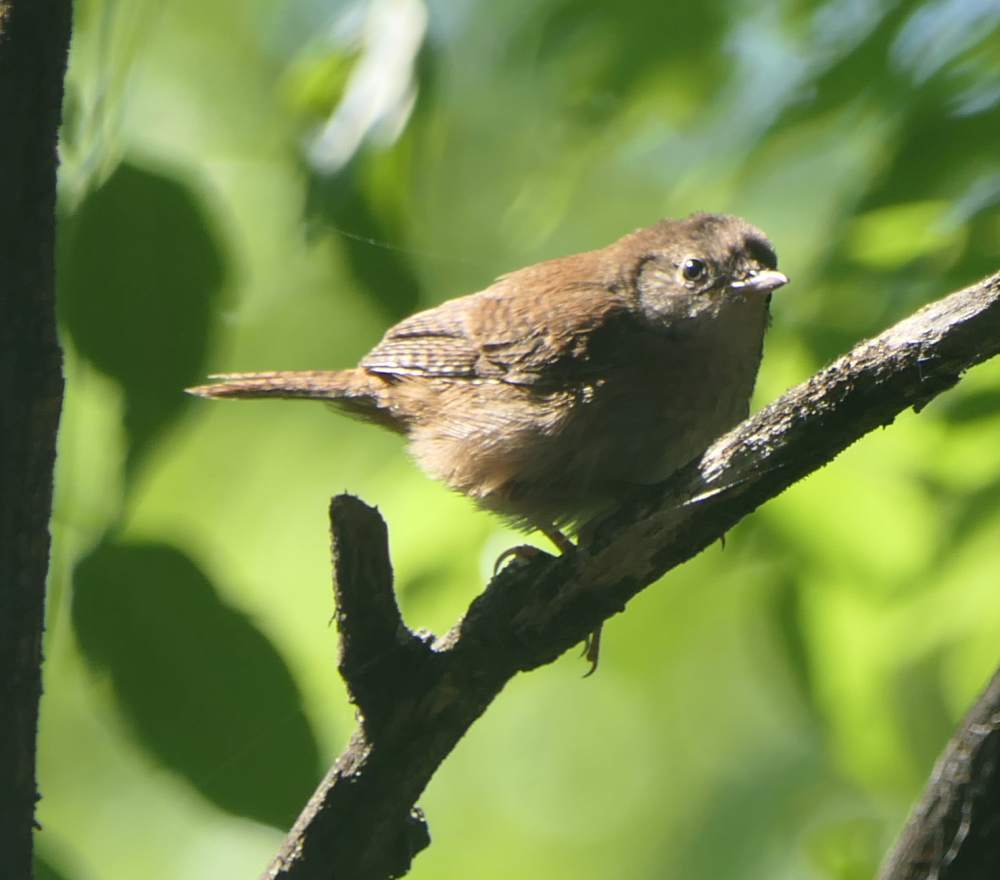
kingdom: Animalia
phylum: Chordata
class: Aves
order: Passeriformes
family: Troglodytidae
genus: Troglodytes
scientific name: Troglodytes aedon
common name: House wren
